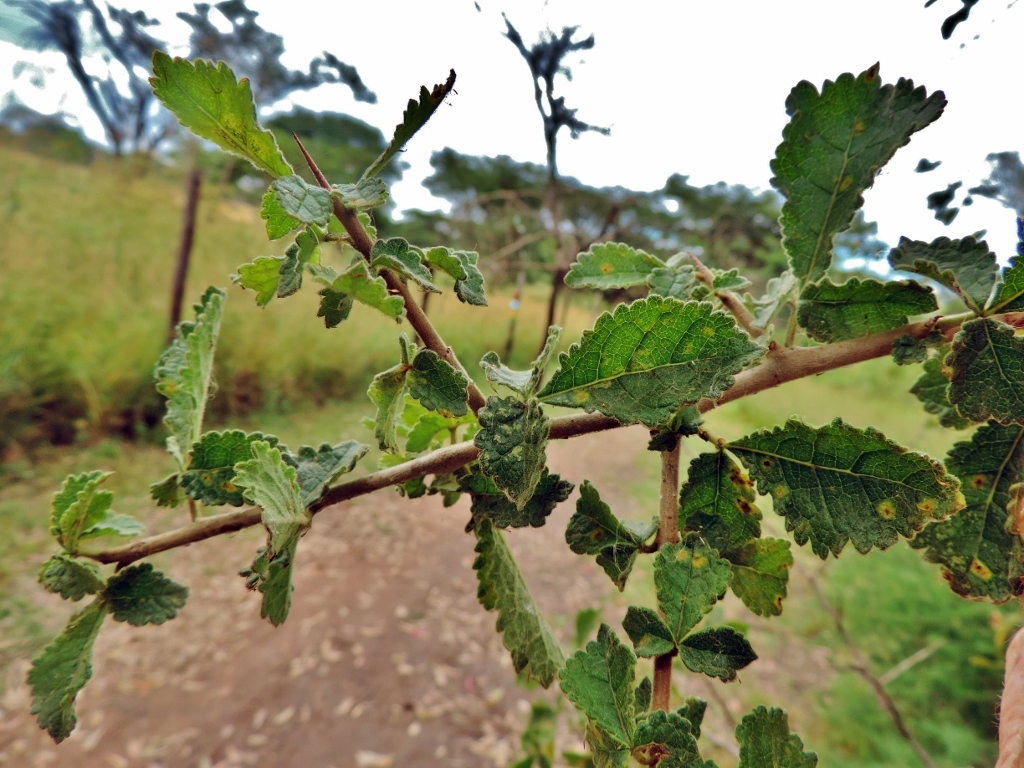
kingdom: Plantae
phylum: Tracheophyta
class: Magnoliopsida
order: Sapindales
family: Burseraceae
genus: Commiphora
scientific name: Commiphora africana
